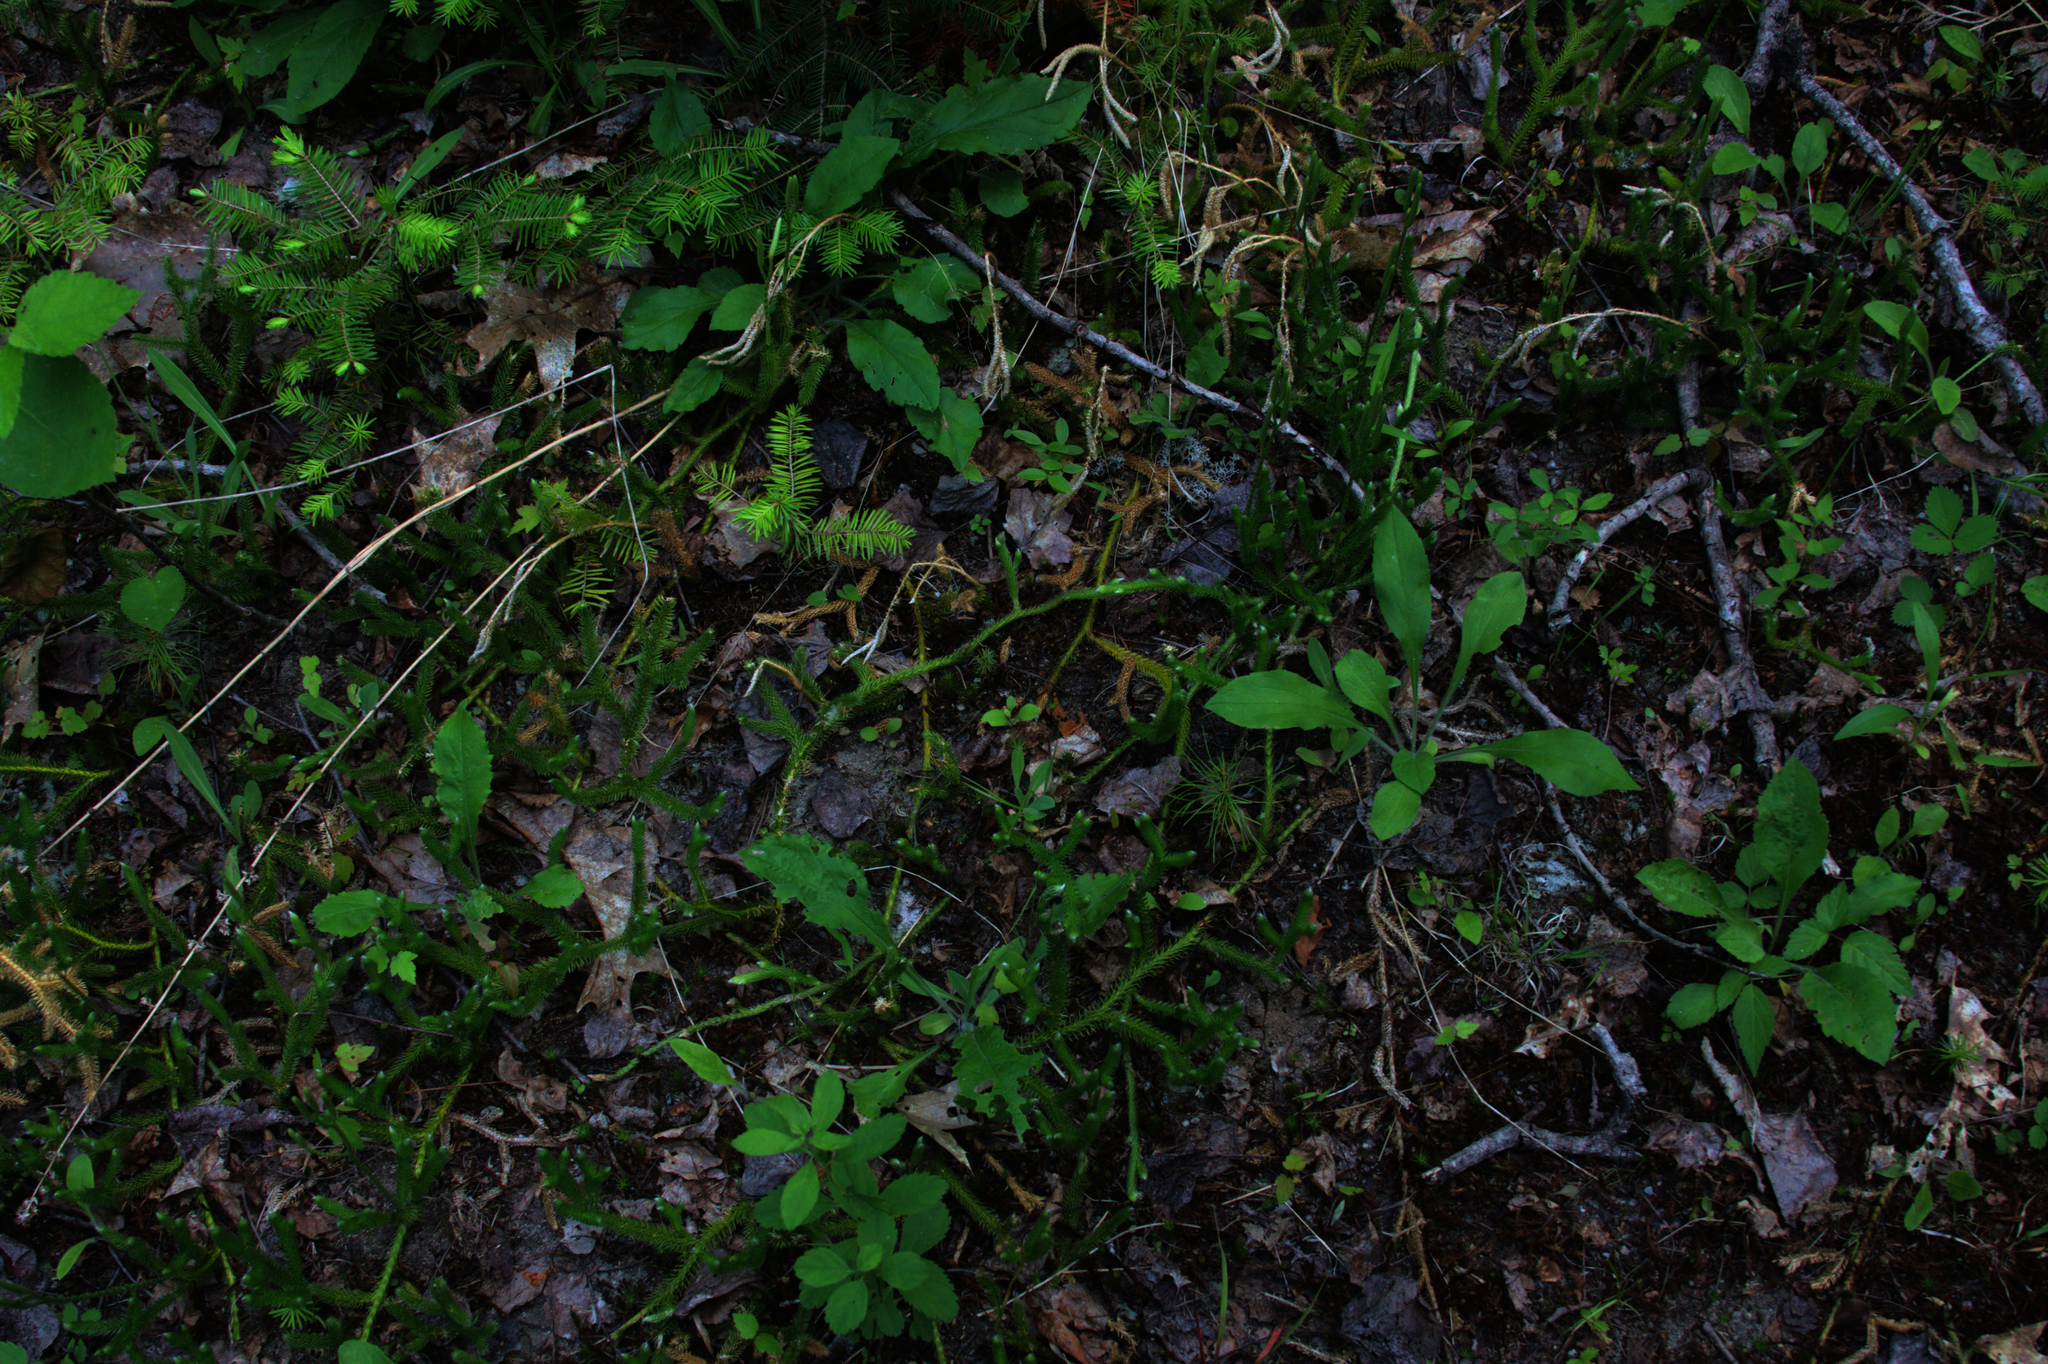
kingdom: Plantae
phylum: Tracheophyta
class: Lycopodiopsida
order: Lycopodiales
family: Lycopodiaceae
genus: Lycopodium
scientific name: Lycopodium clavatum
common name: Stag's-horn clubmoss
